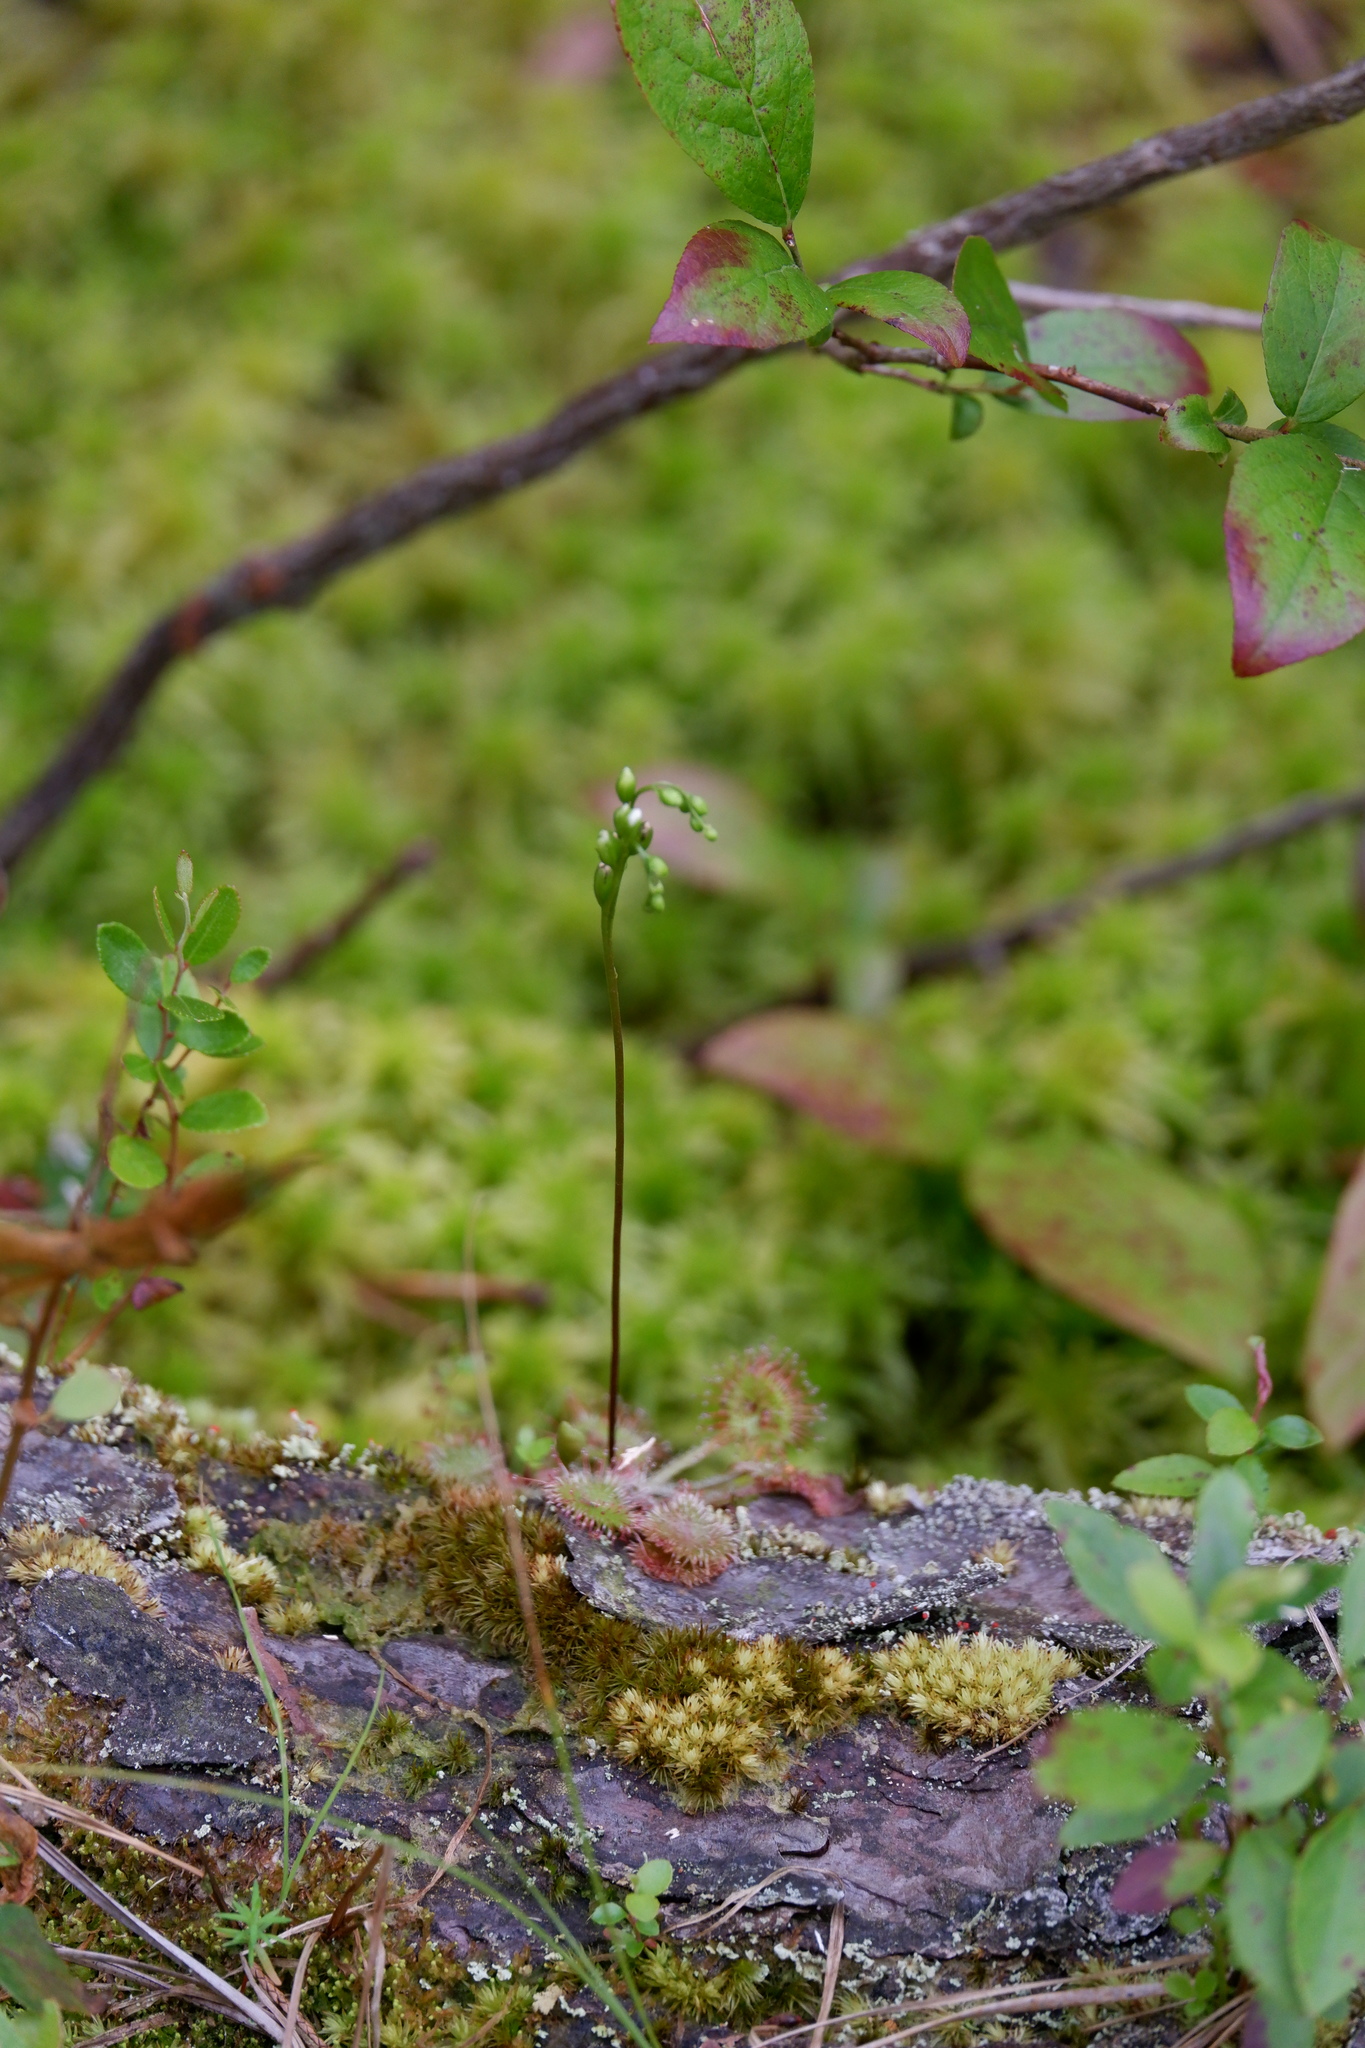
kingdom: Plantae
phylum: Tracheophyta
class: Magnoliopsida
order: Caryophyllales
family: Droseraceae
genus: Drosera
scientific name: Drosera rotundifolia
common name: Round-leaved sundew
